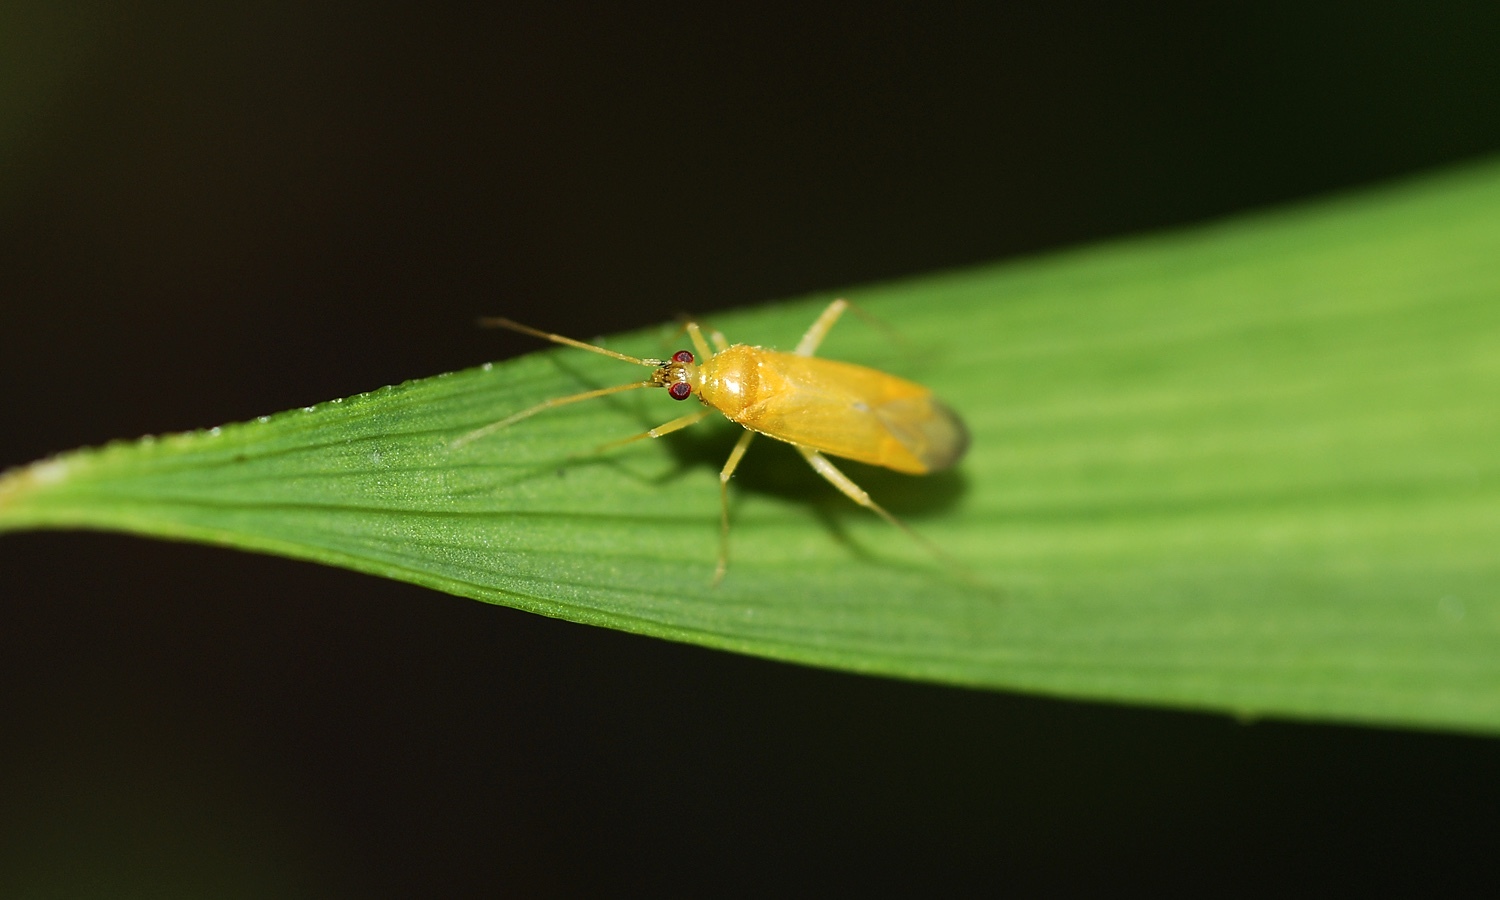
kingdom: Animalia
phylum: Arthropoda
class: Insecta
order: Hemiptera
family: Miridae
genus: Phylus
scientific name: Phylus melanocephalus
